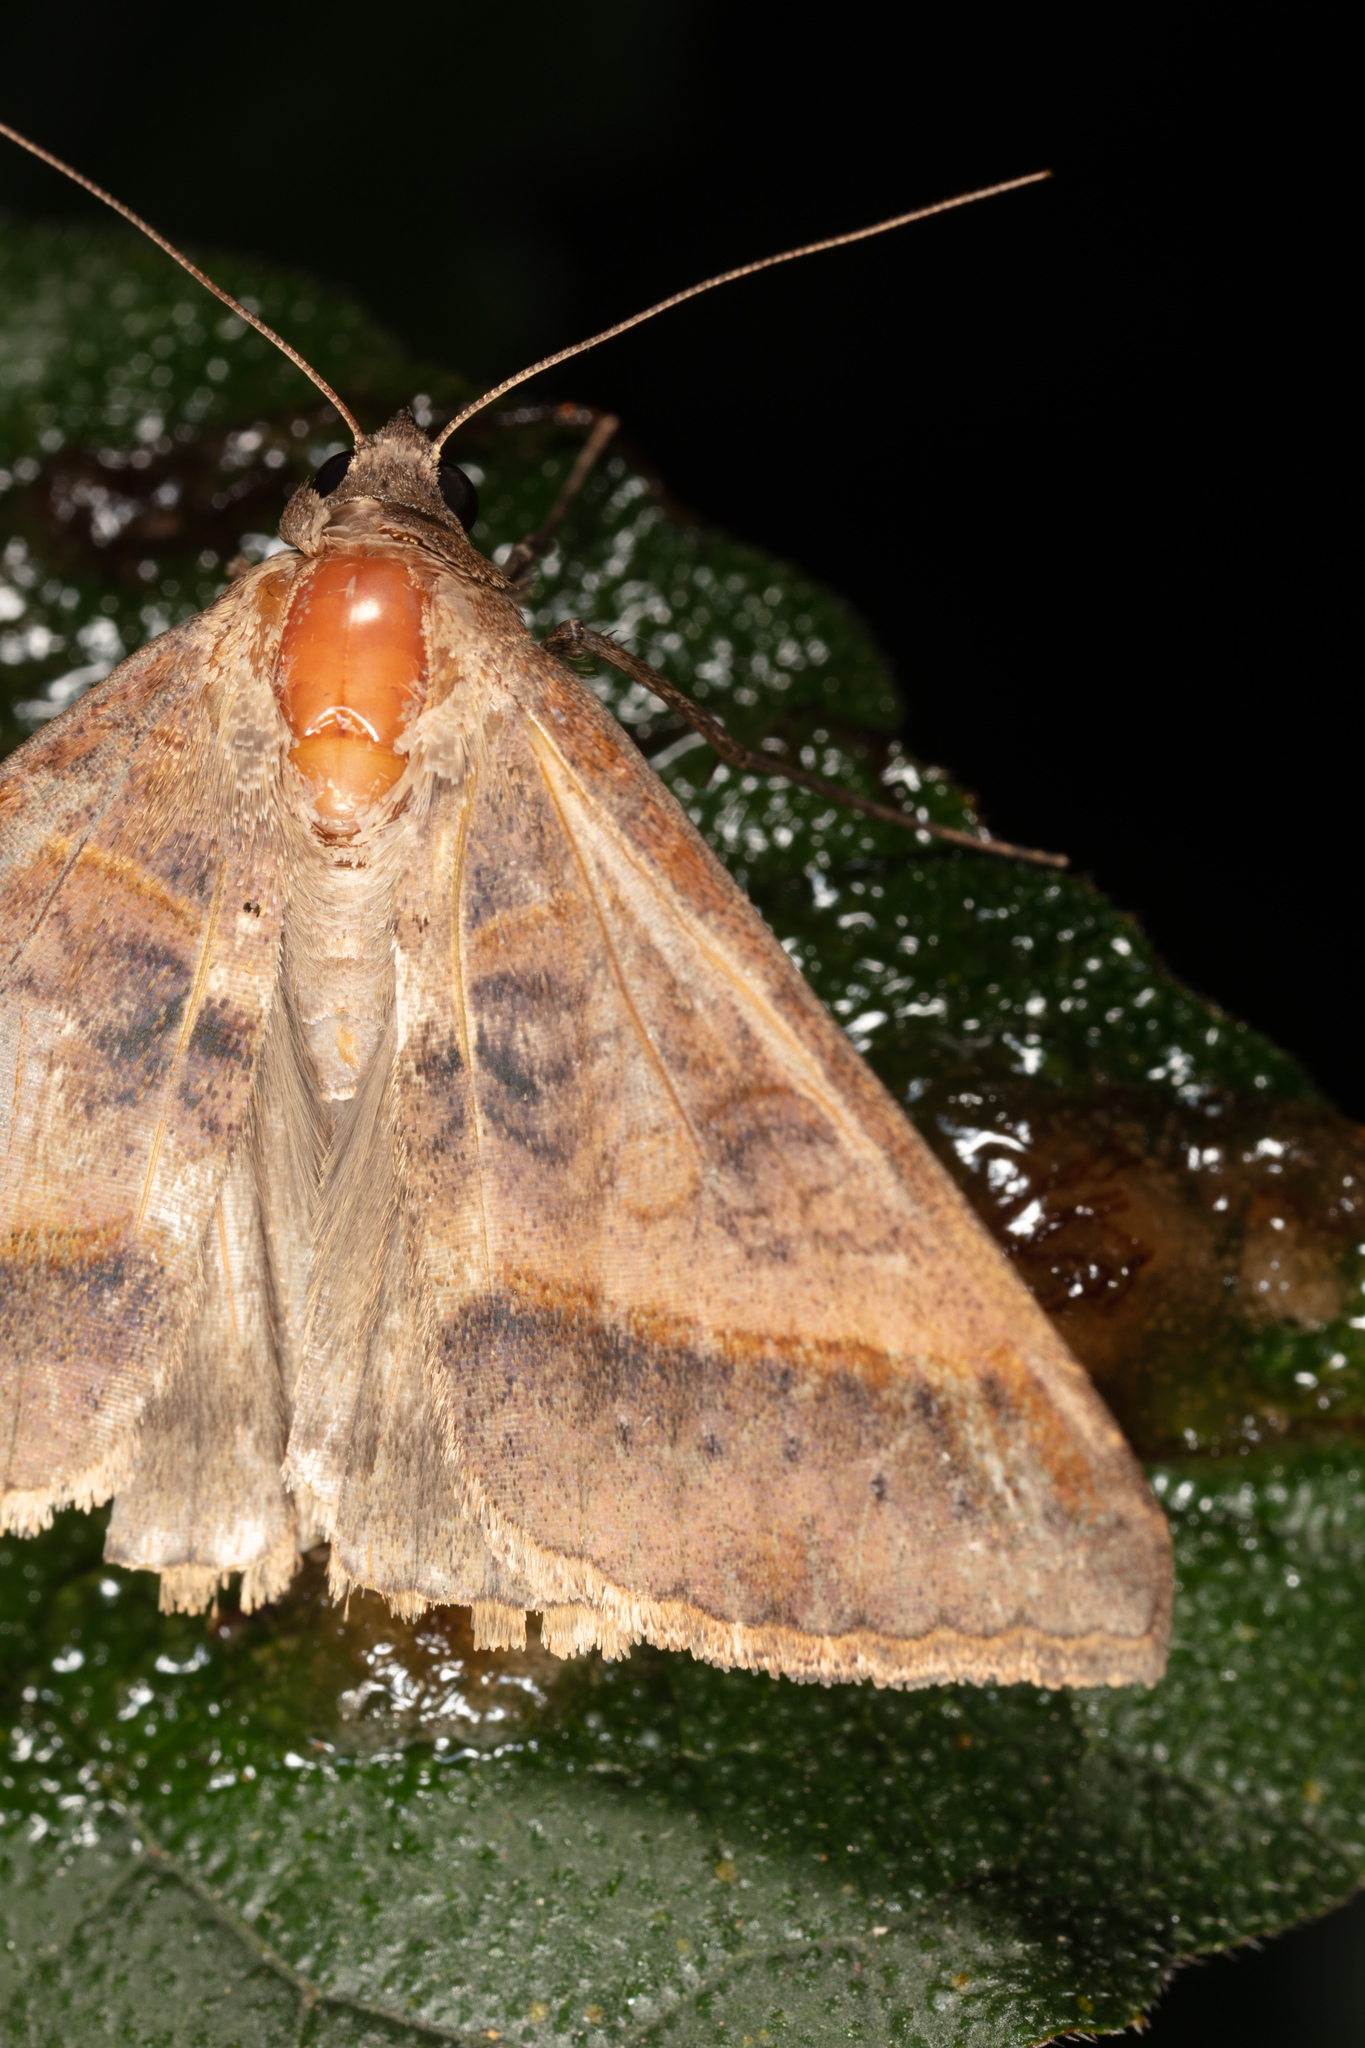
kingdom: Animalia
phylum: Arthropoda
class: Insecta
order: Lepidoptera
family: Erebidae
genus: Mocis
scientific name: Mocis marcida
